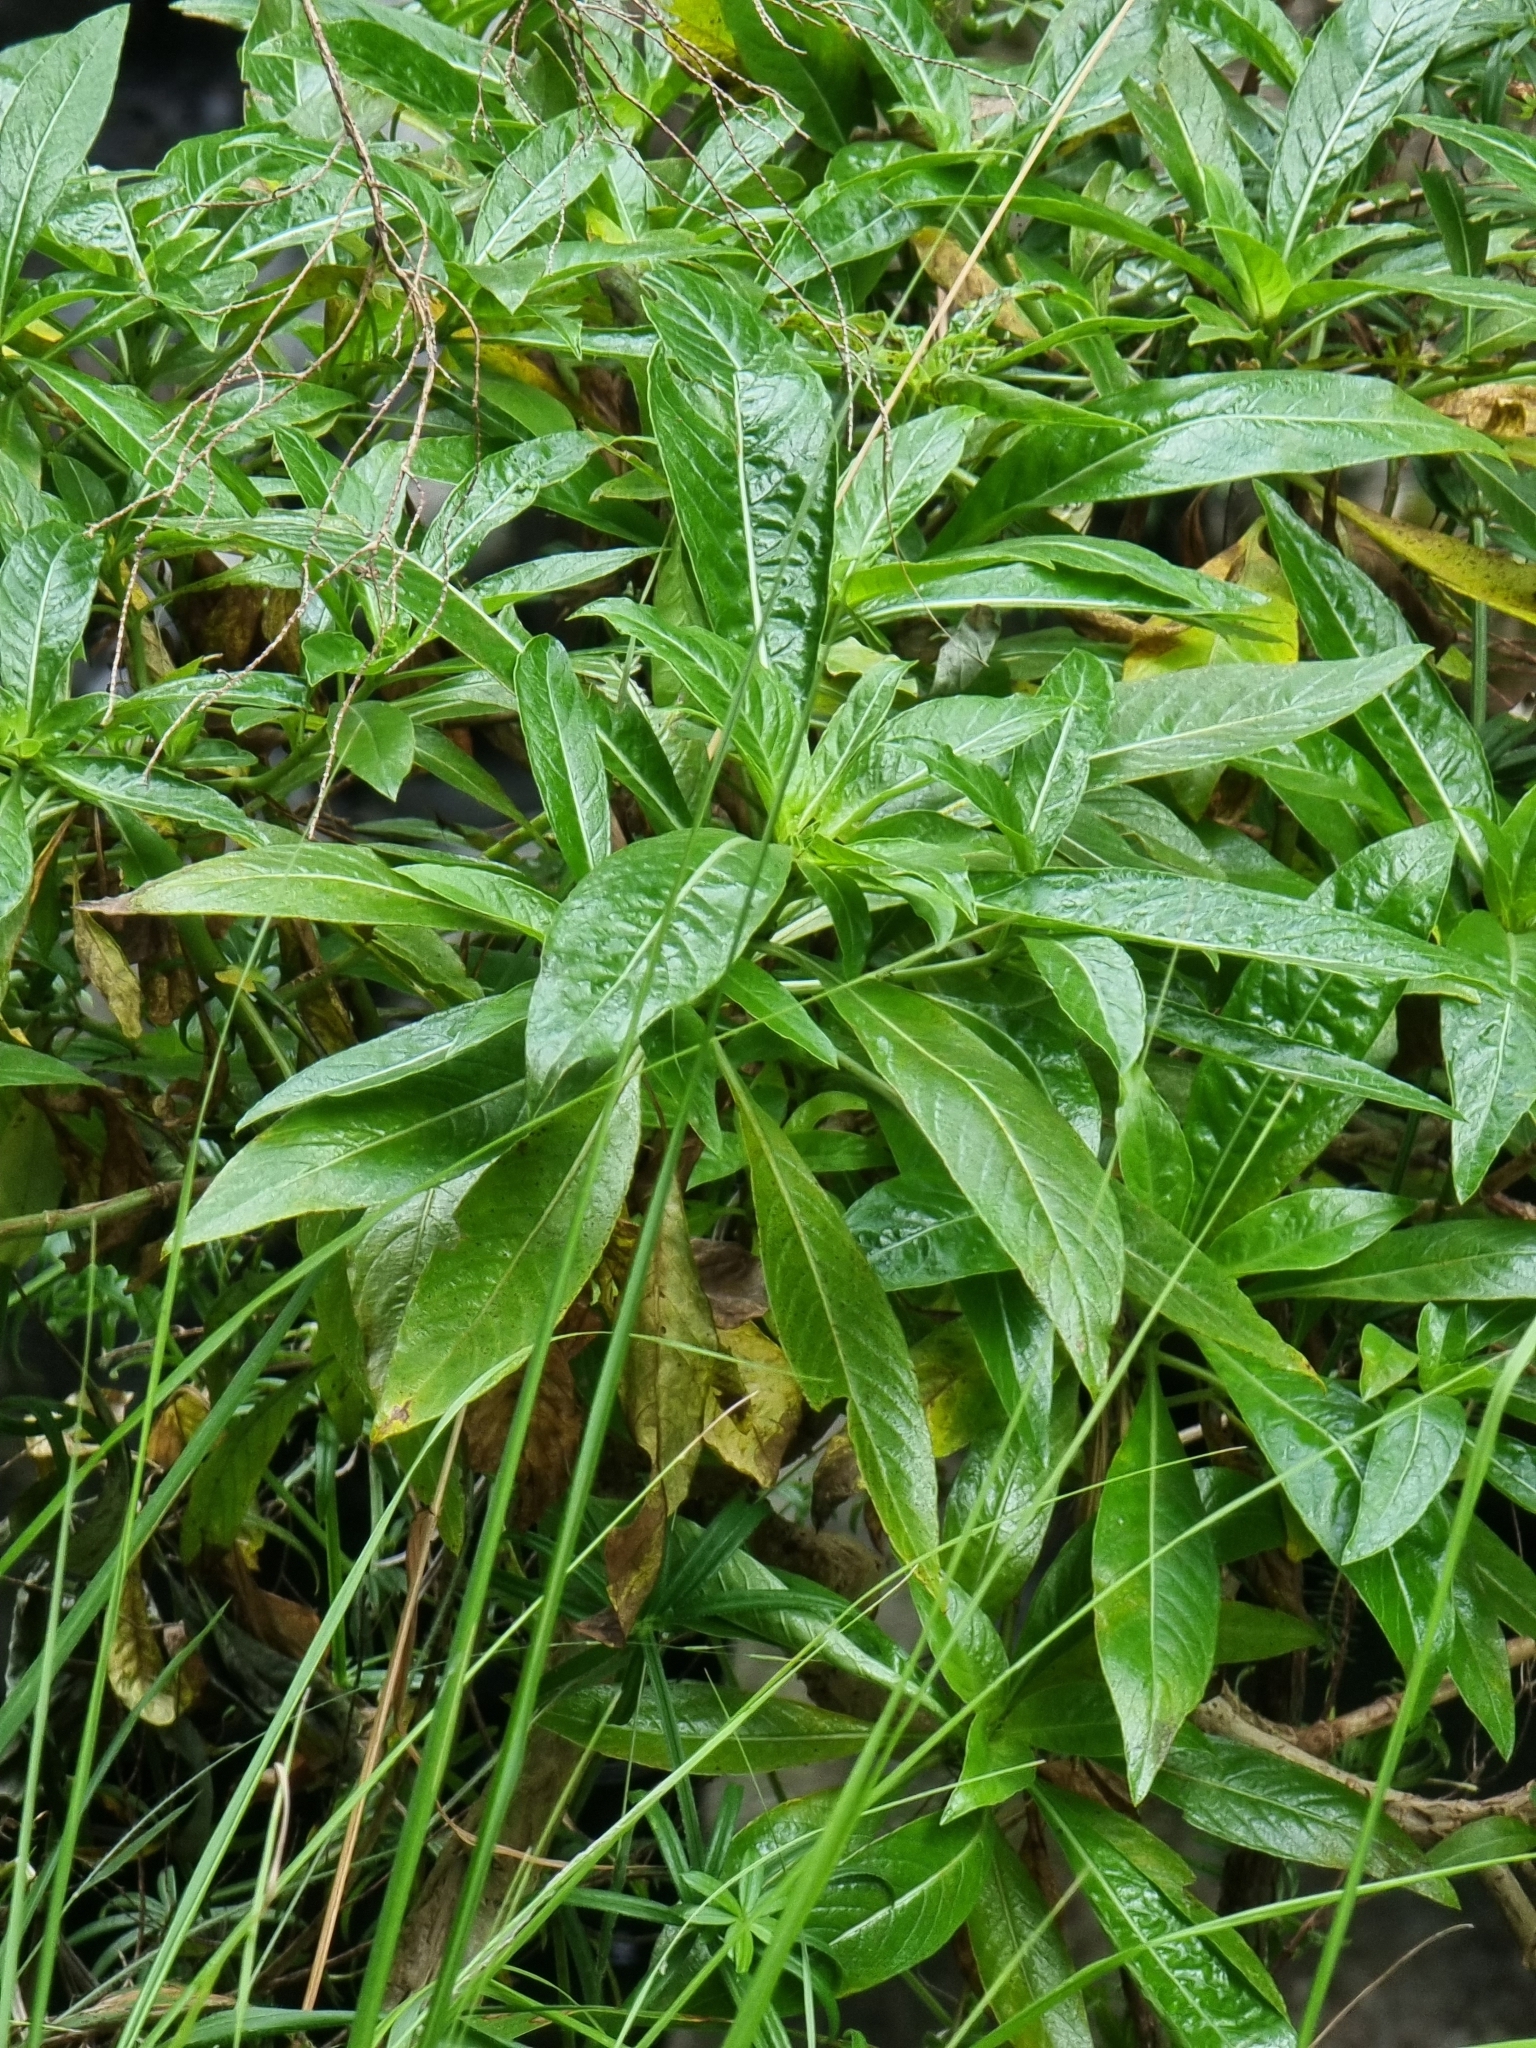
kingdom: Plantae
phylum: Tracheophyta
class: Magnoliopsida
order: Gentianales
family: Rubiaceae
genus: Phyllis
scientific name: Phyllis nobla
